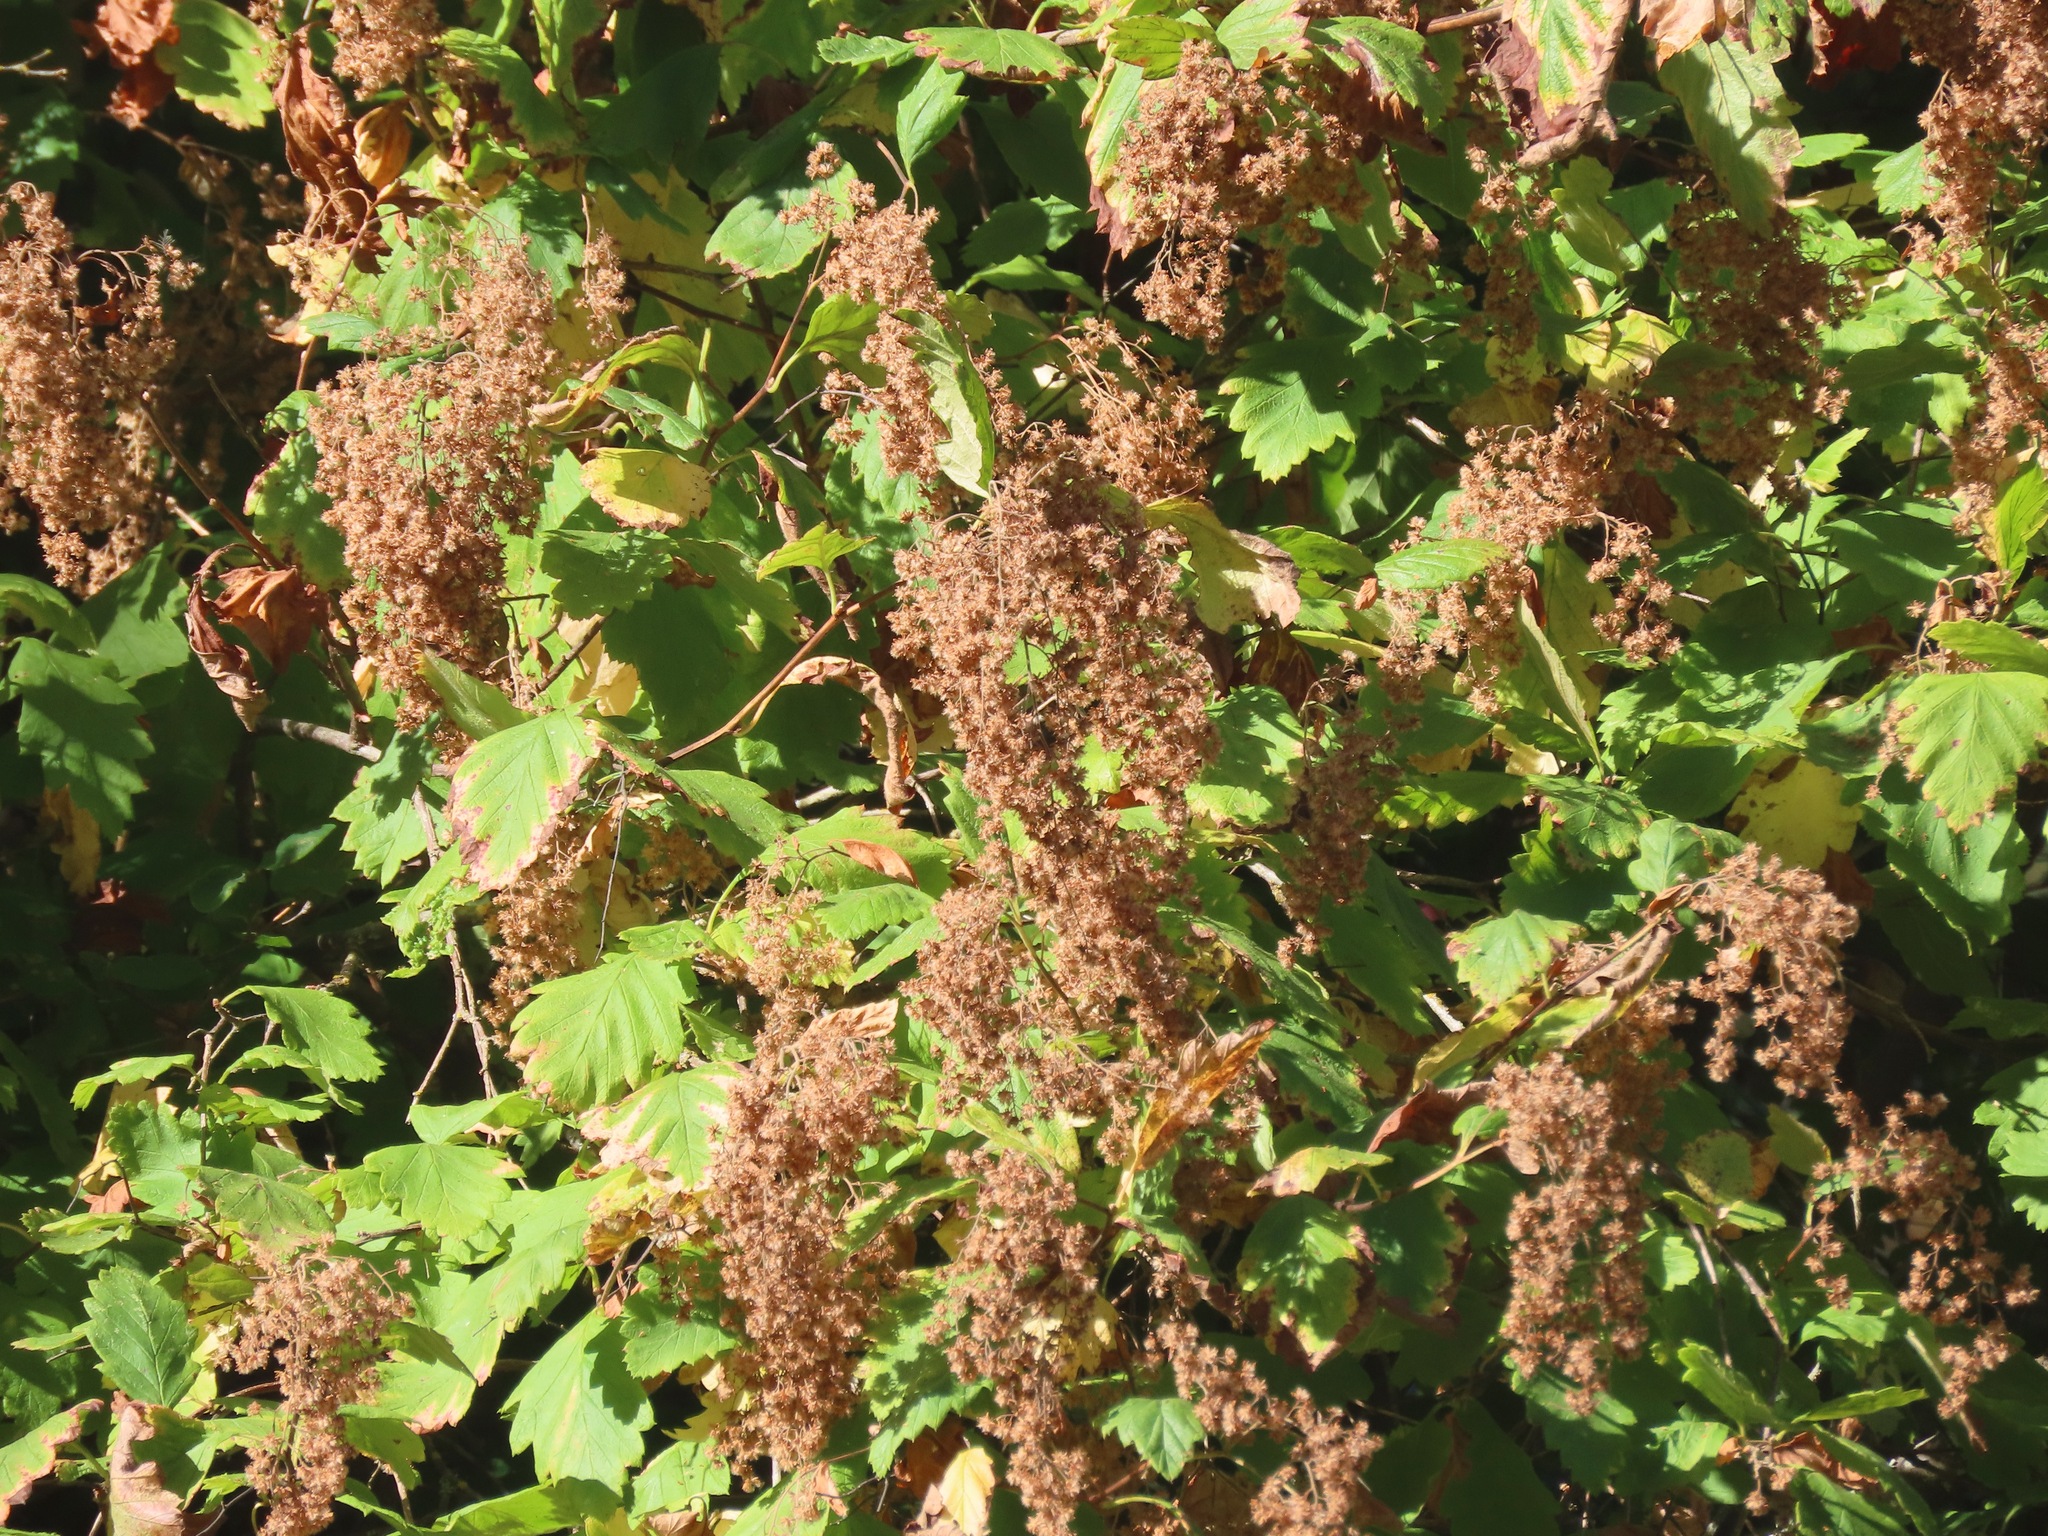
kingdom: Plantae
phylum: Tracheophyta
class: Magnoliopsida
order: Rosales
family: Rosaceae
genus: Holodiscus
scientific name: Holodiscus discolor
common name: Oceanspray
